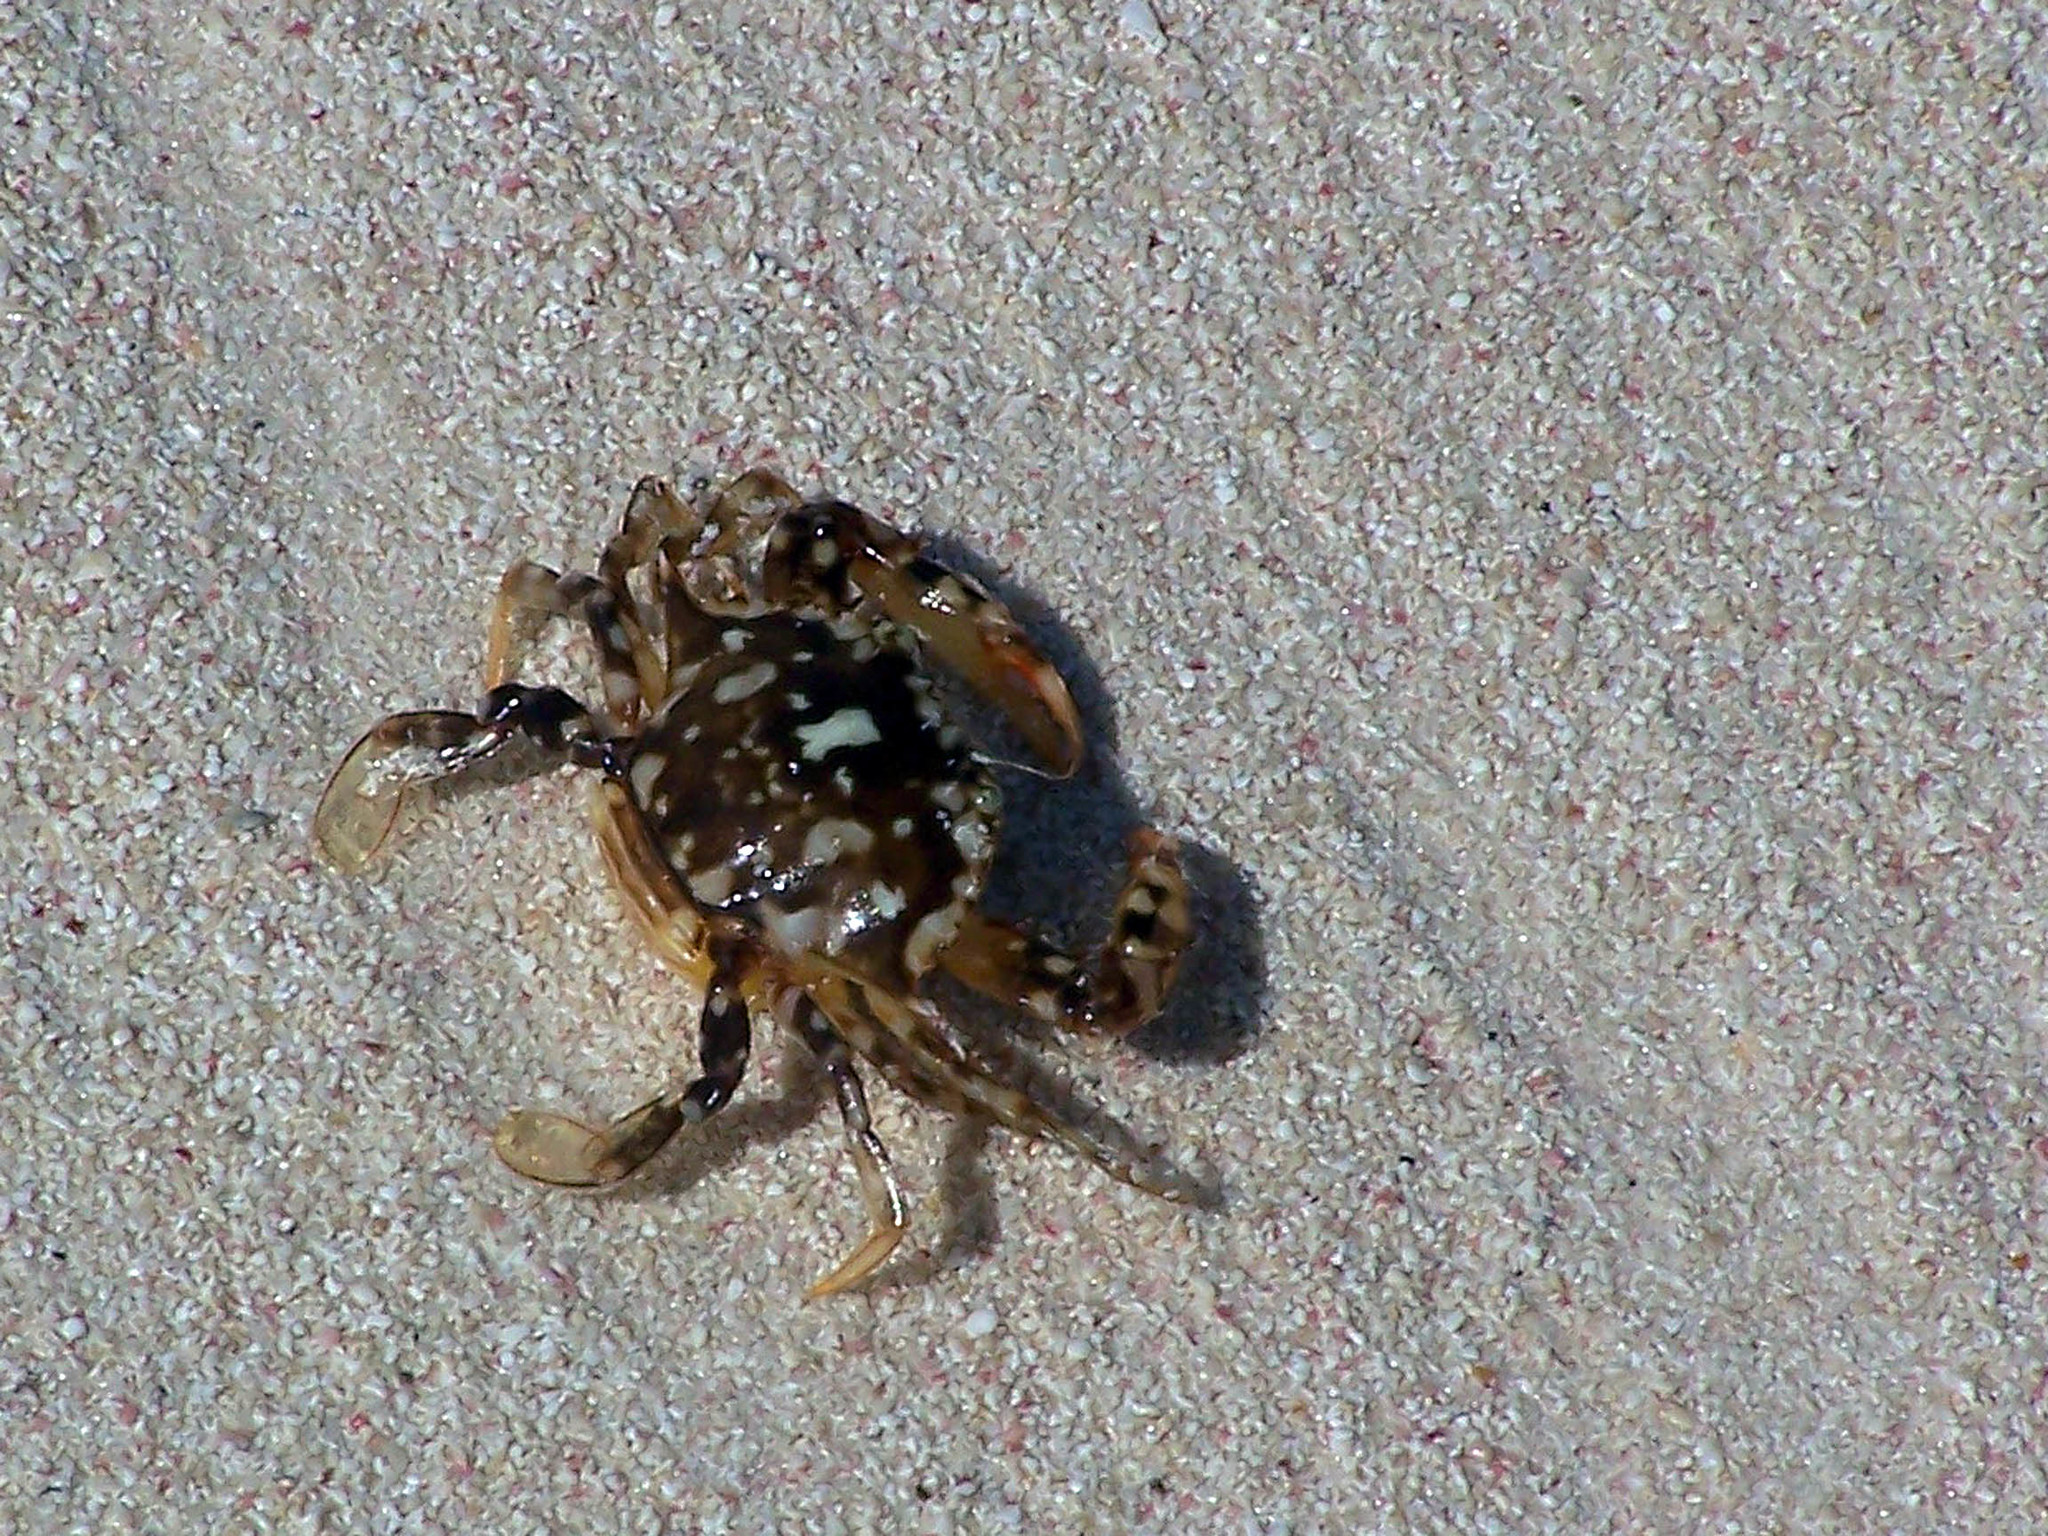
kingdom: Animalia
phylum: Arthropoda
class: Malacostraca
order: Decapoda
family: Portunidae
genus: Portunus
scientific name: Portunus sayi
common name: Sargassum crab
